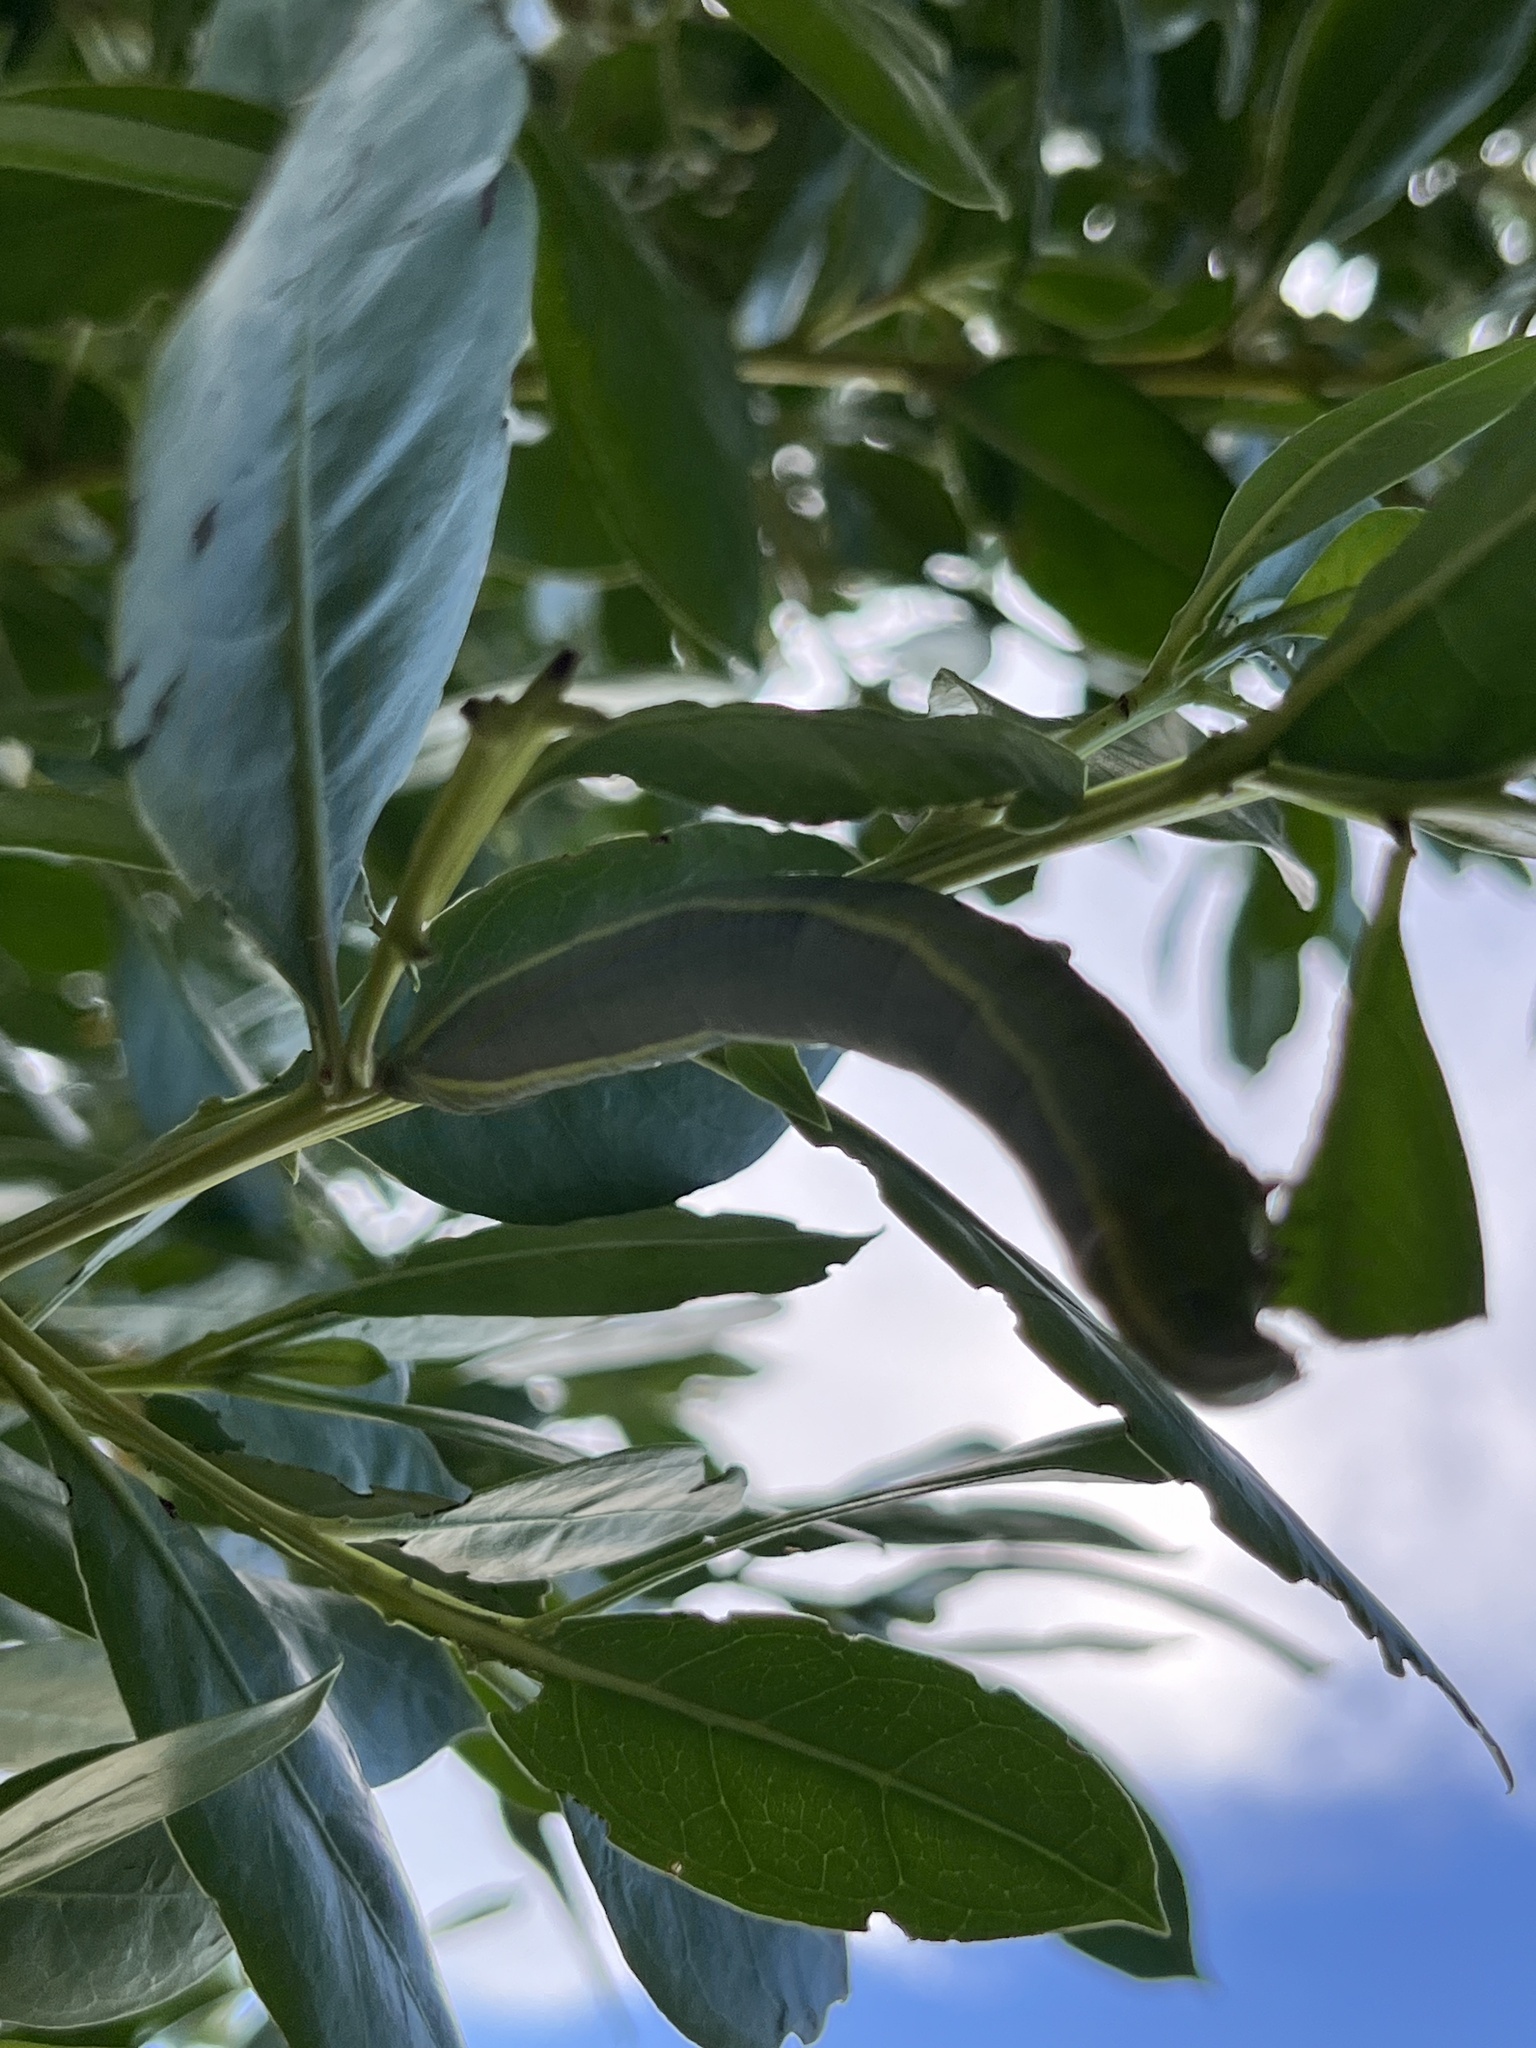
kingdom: Animalia
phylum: Arthropoda
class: Insecta
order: Lepidoptera
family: Sphingidae
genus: Pachylia
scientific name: Pachylia ficus
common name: Fig sphinx
